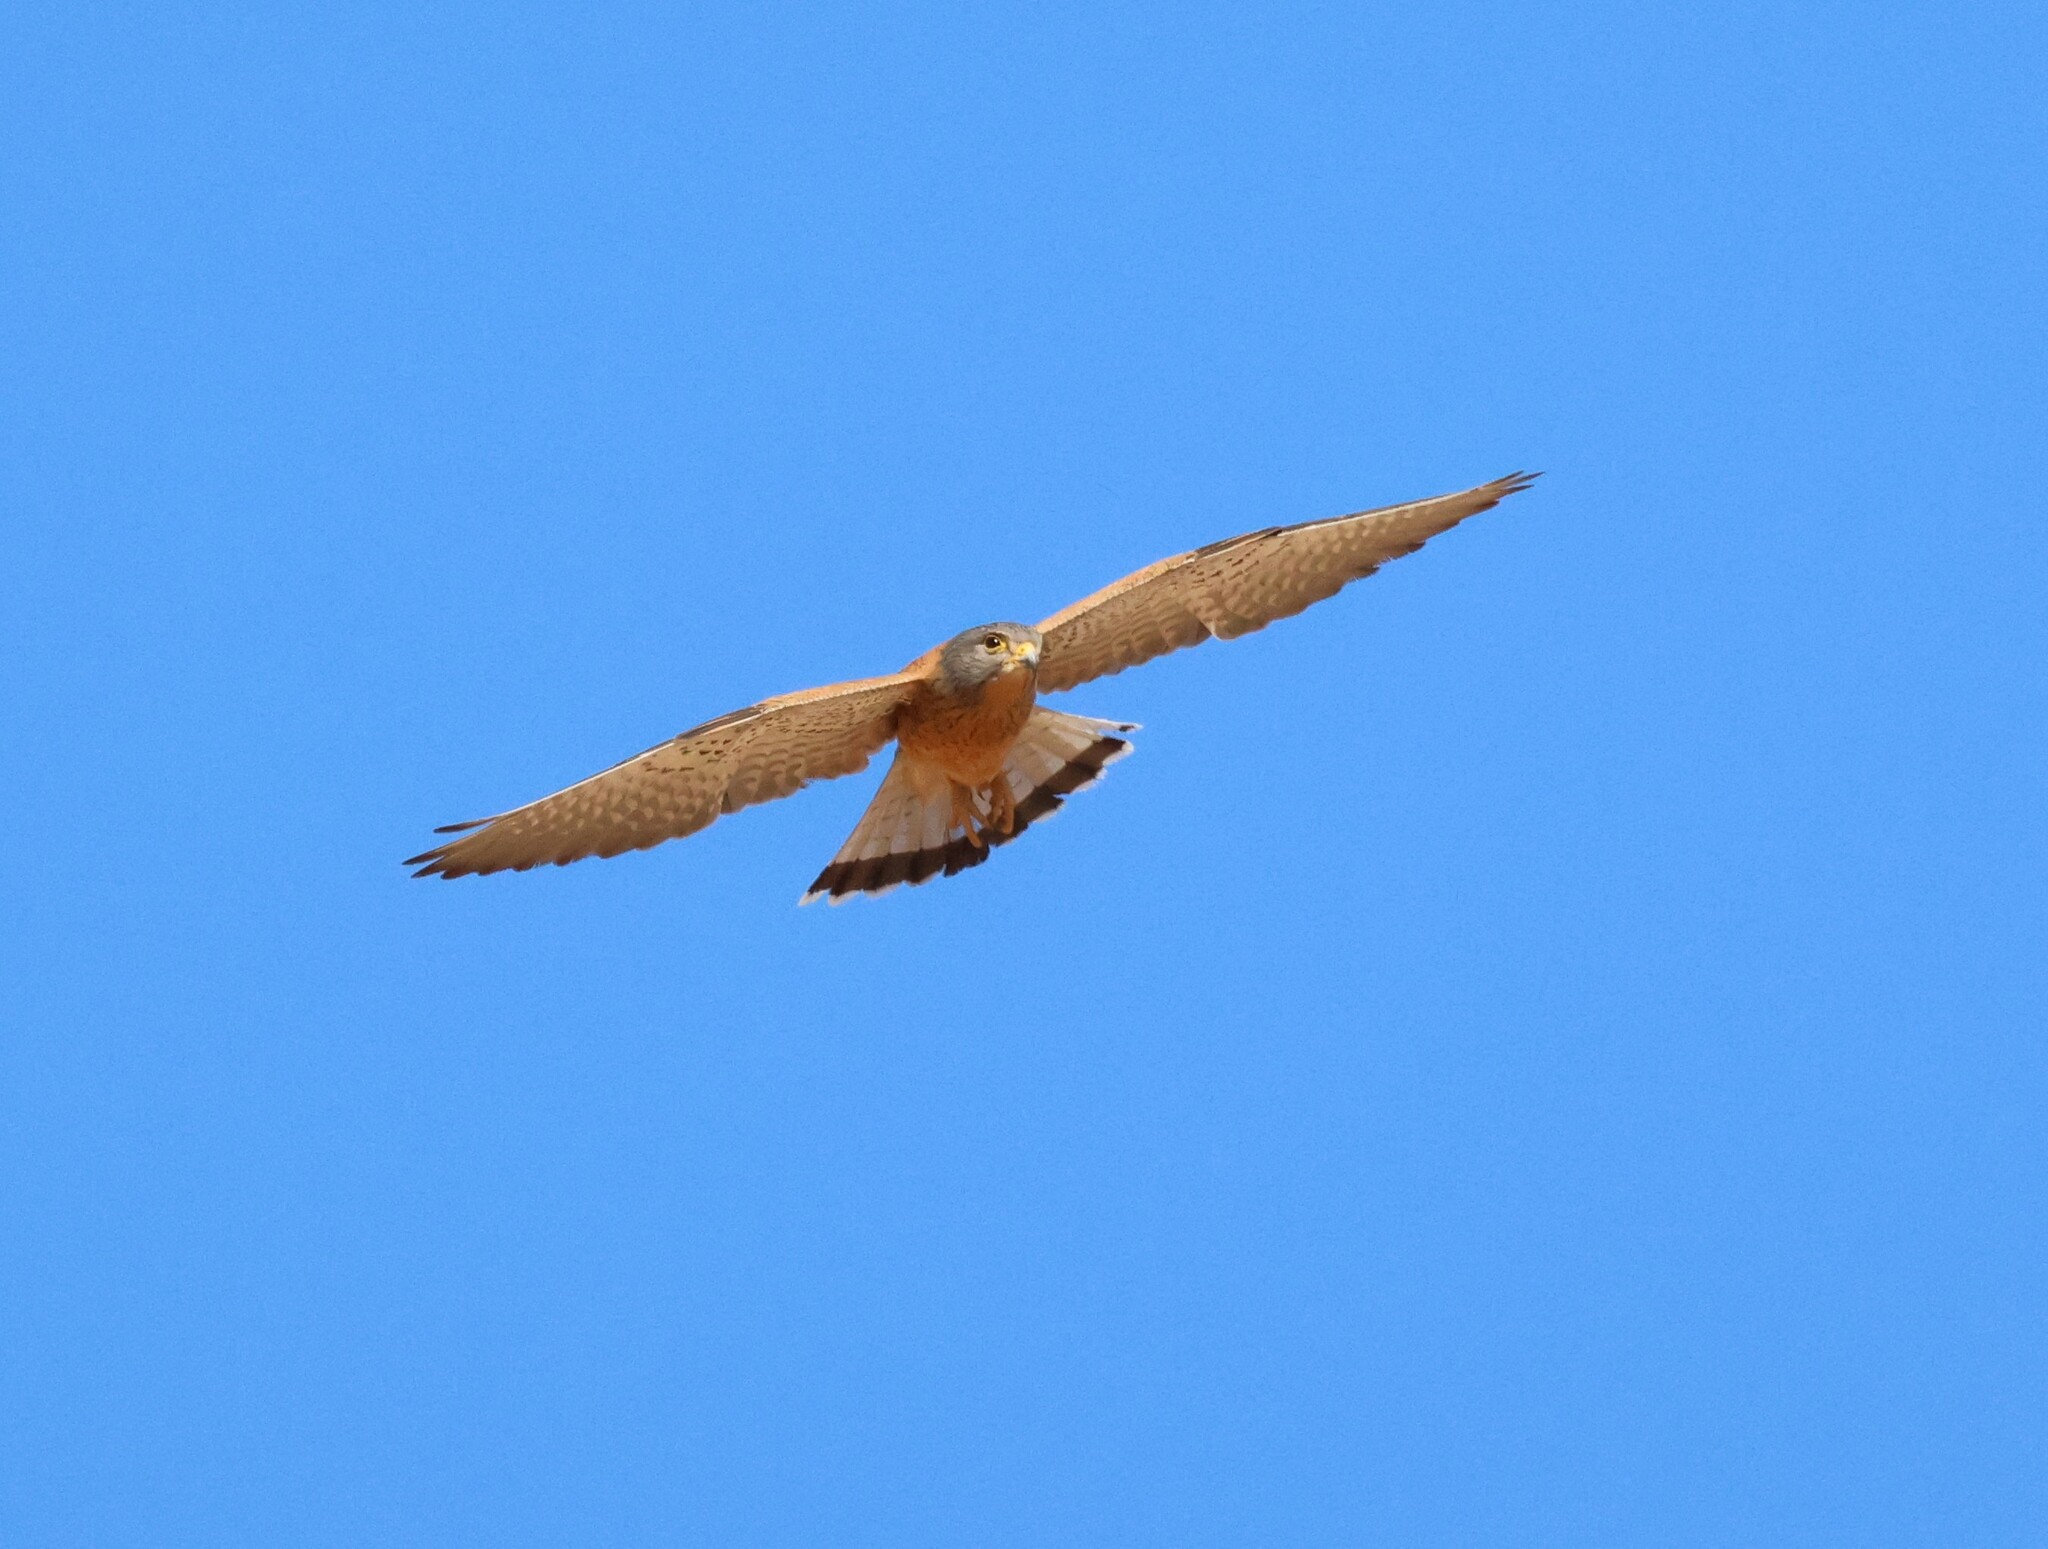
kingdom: Animalia
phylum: Chordata
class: Aves
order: Falconiformes
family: Falconidae
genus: Falco
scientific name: Falco rupicolus
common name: Rock kestrel
